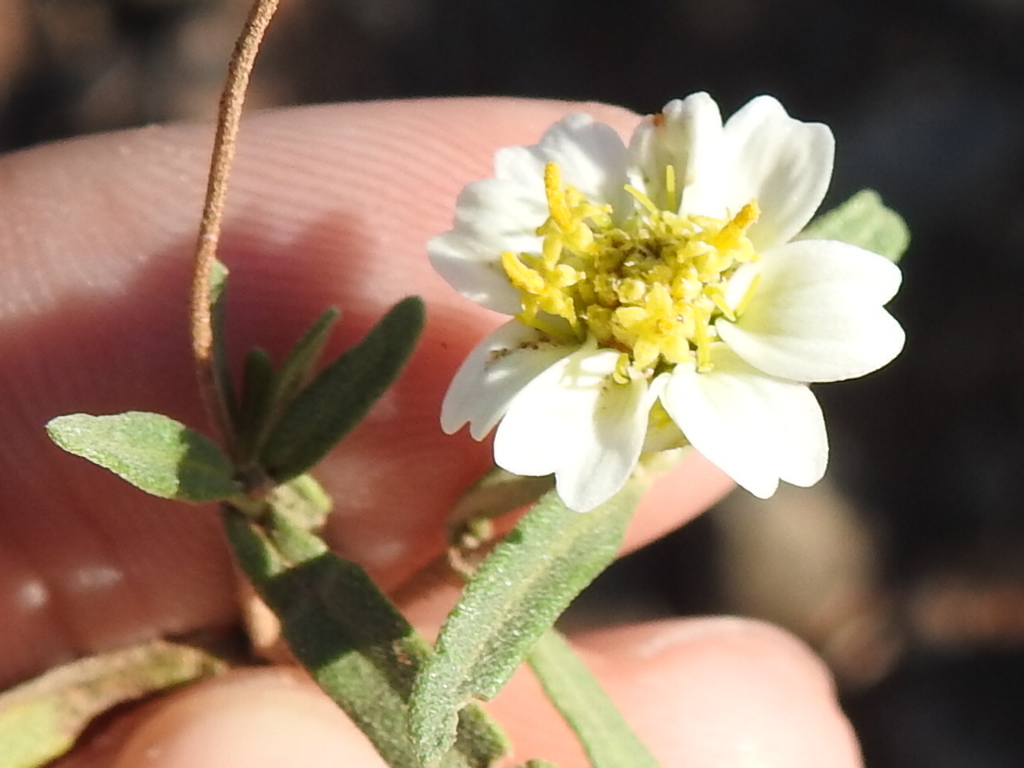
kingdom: Plantae
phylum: Tracheophyta
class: Magnoliopsida
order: Asterales
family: Asteraceae
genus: Melampodium
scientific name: Melampodium leucanthum
